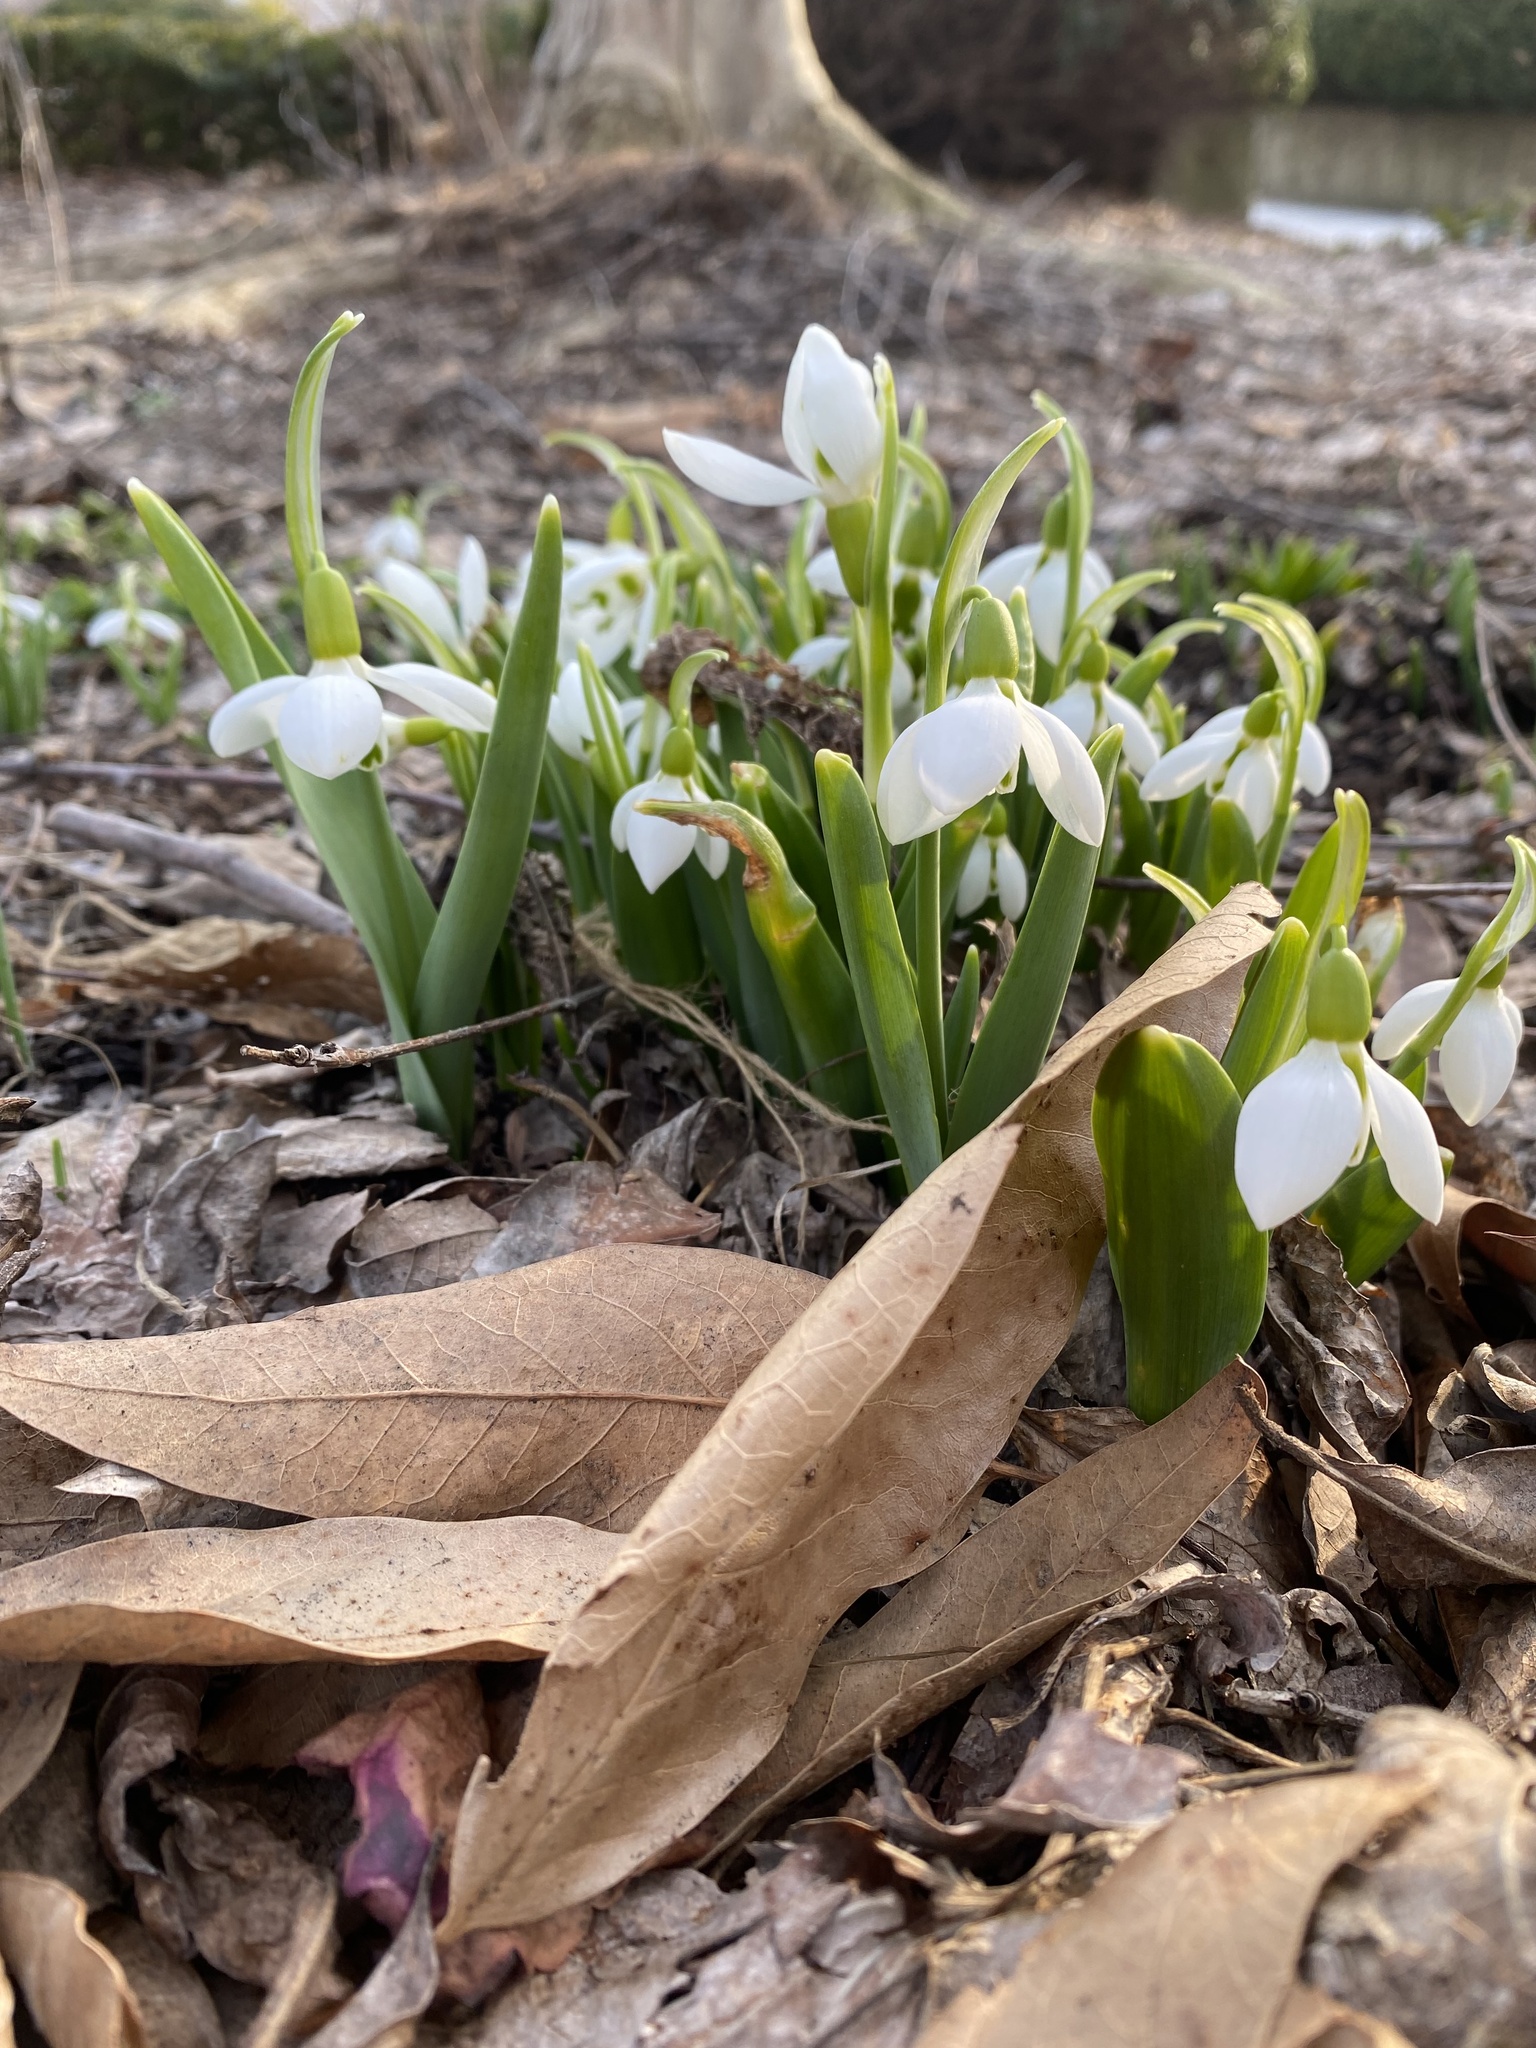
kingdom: Plantae
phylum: Tracheophyta
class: Liliopsida
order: Asparagales
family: Amaryllidaceae
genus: Galanthus
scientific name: Galanthus elwesii
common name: Greater snowdrop
